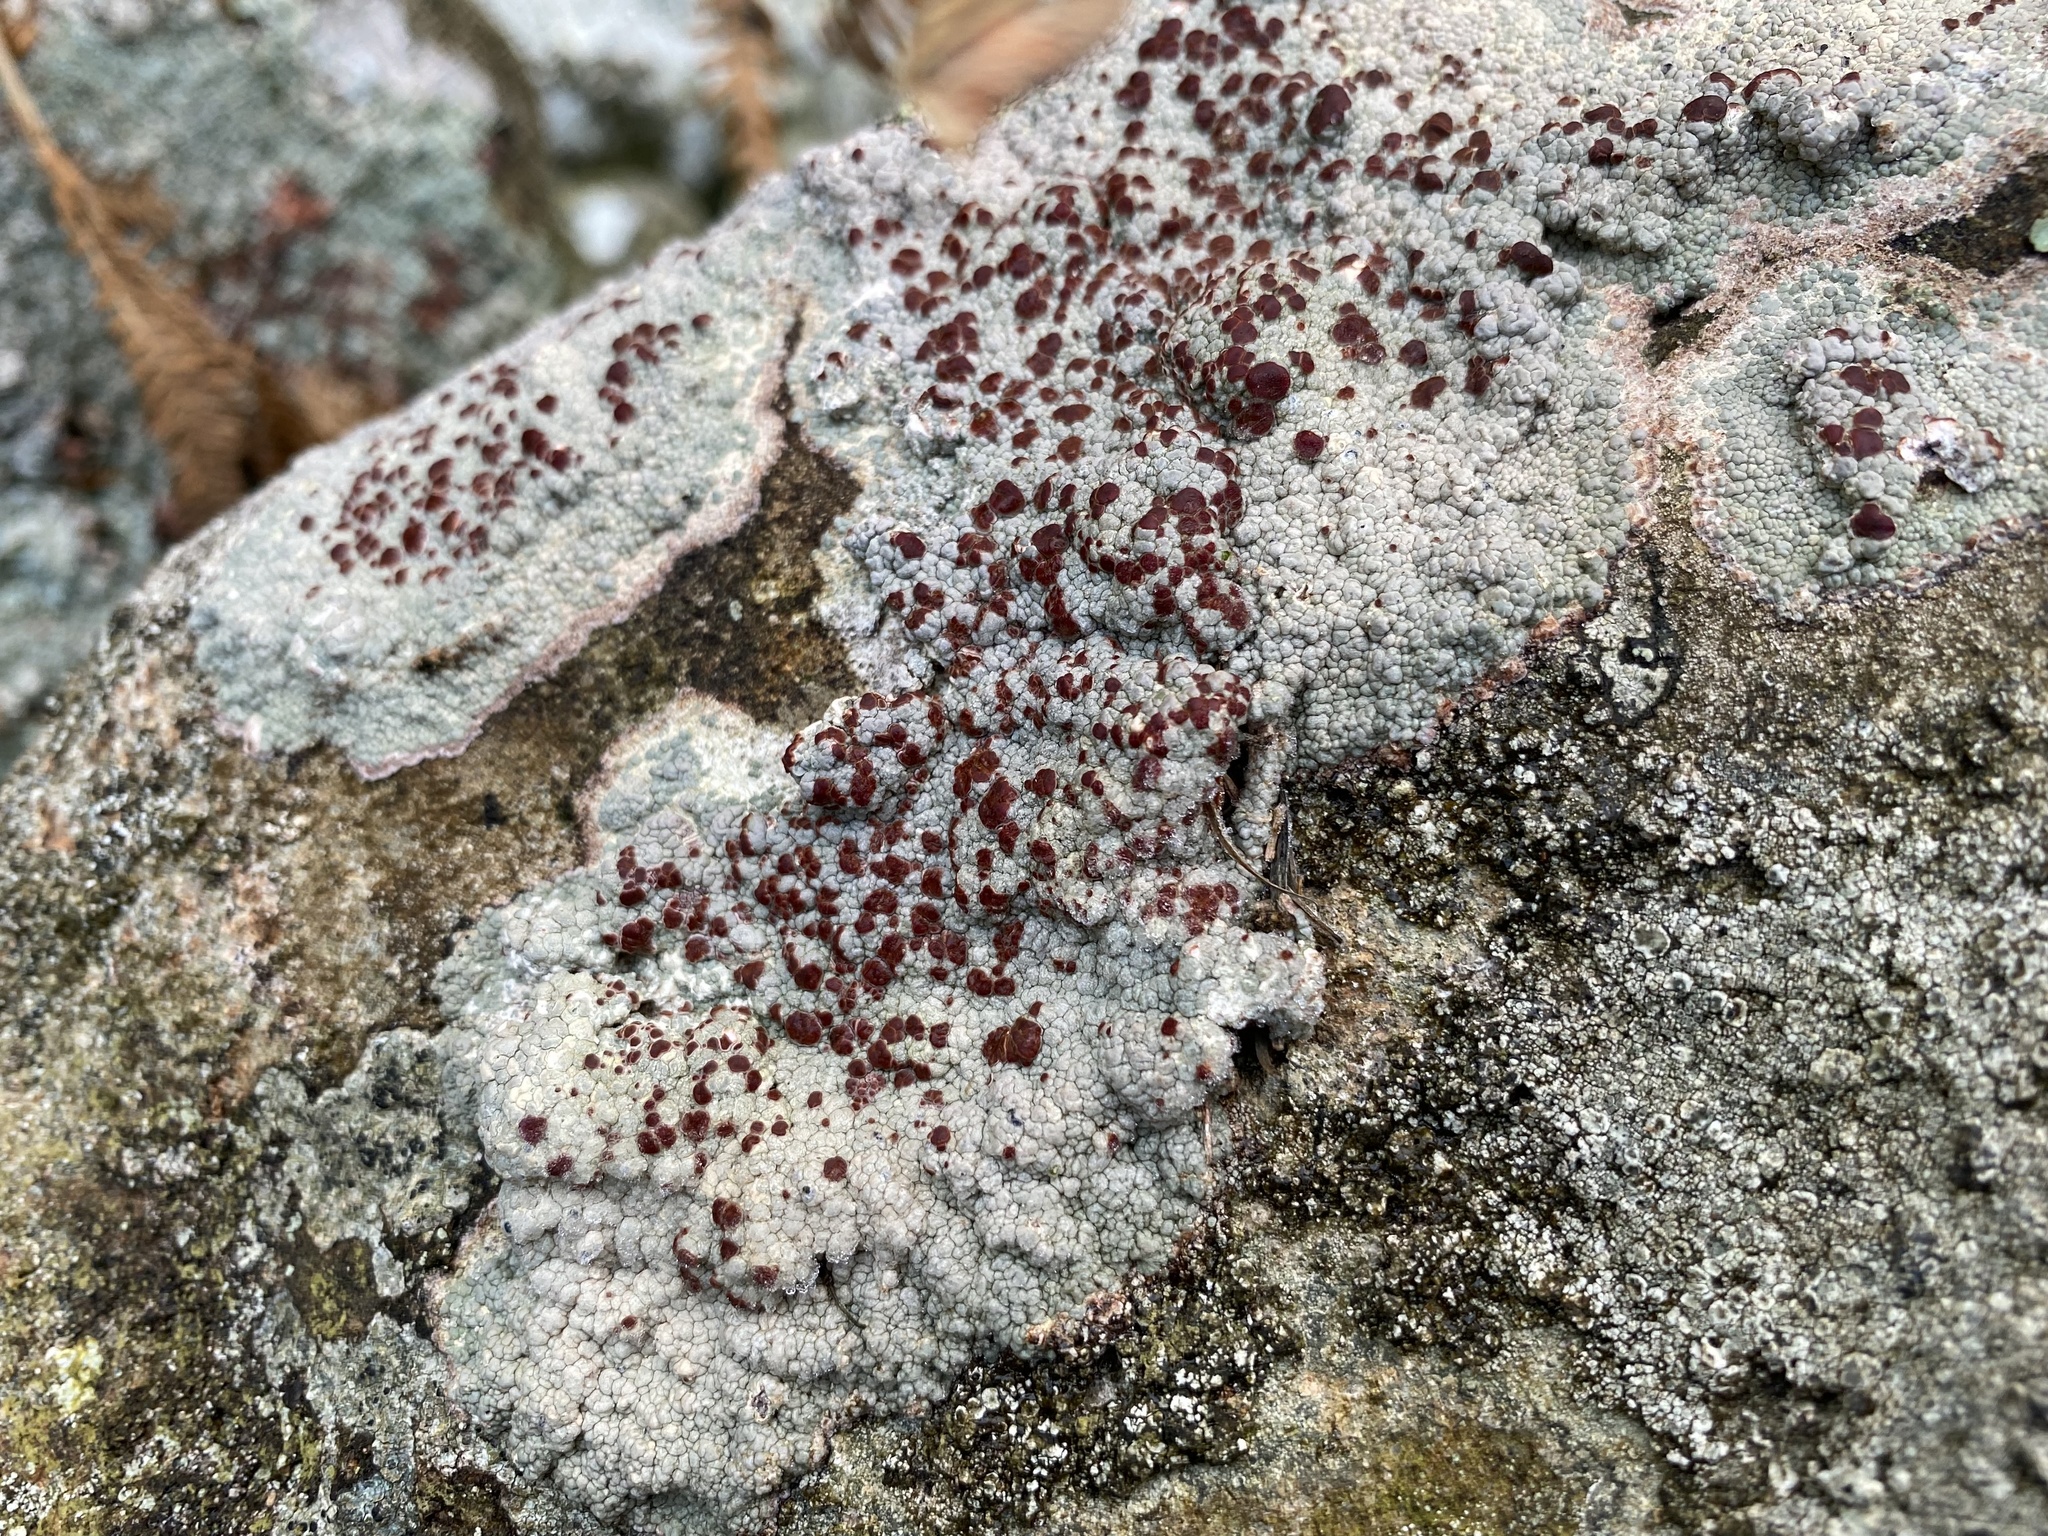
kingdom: Fungi
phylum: Ascomycota
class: Lecanoromycetes
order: Umbilicariales
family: Ophioparmaceae
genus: Ophioparma
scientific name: Ophioparma ventosa
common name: Blood-spot
